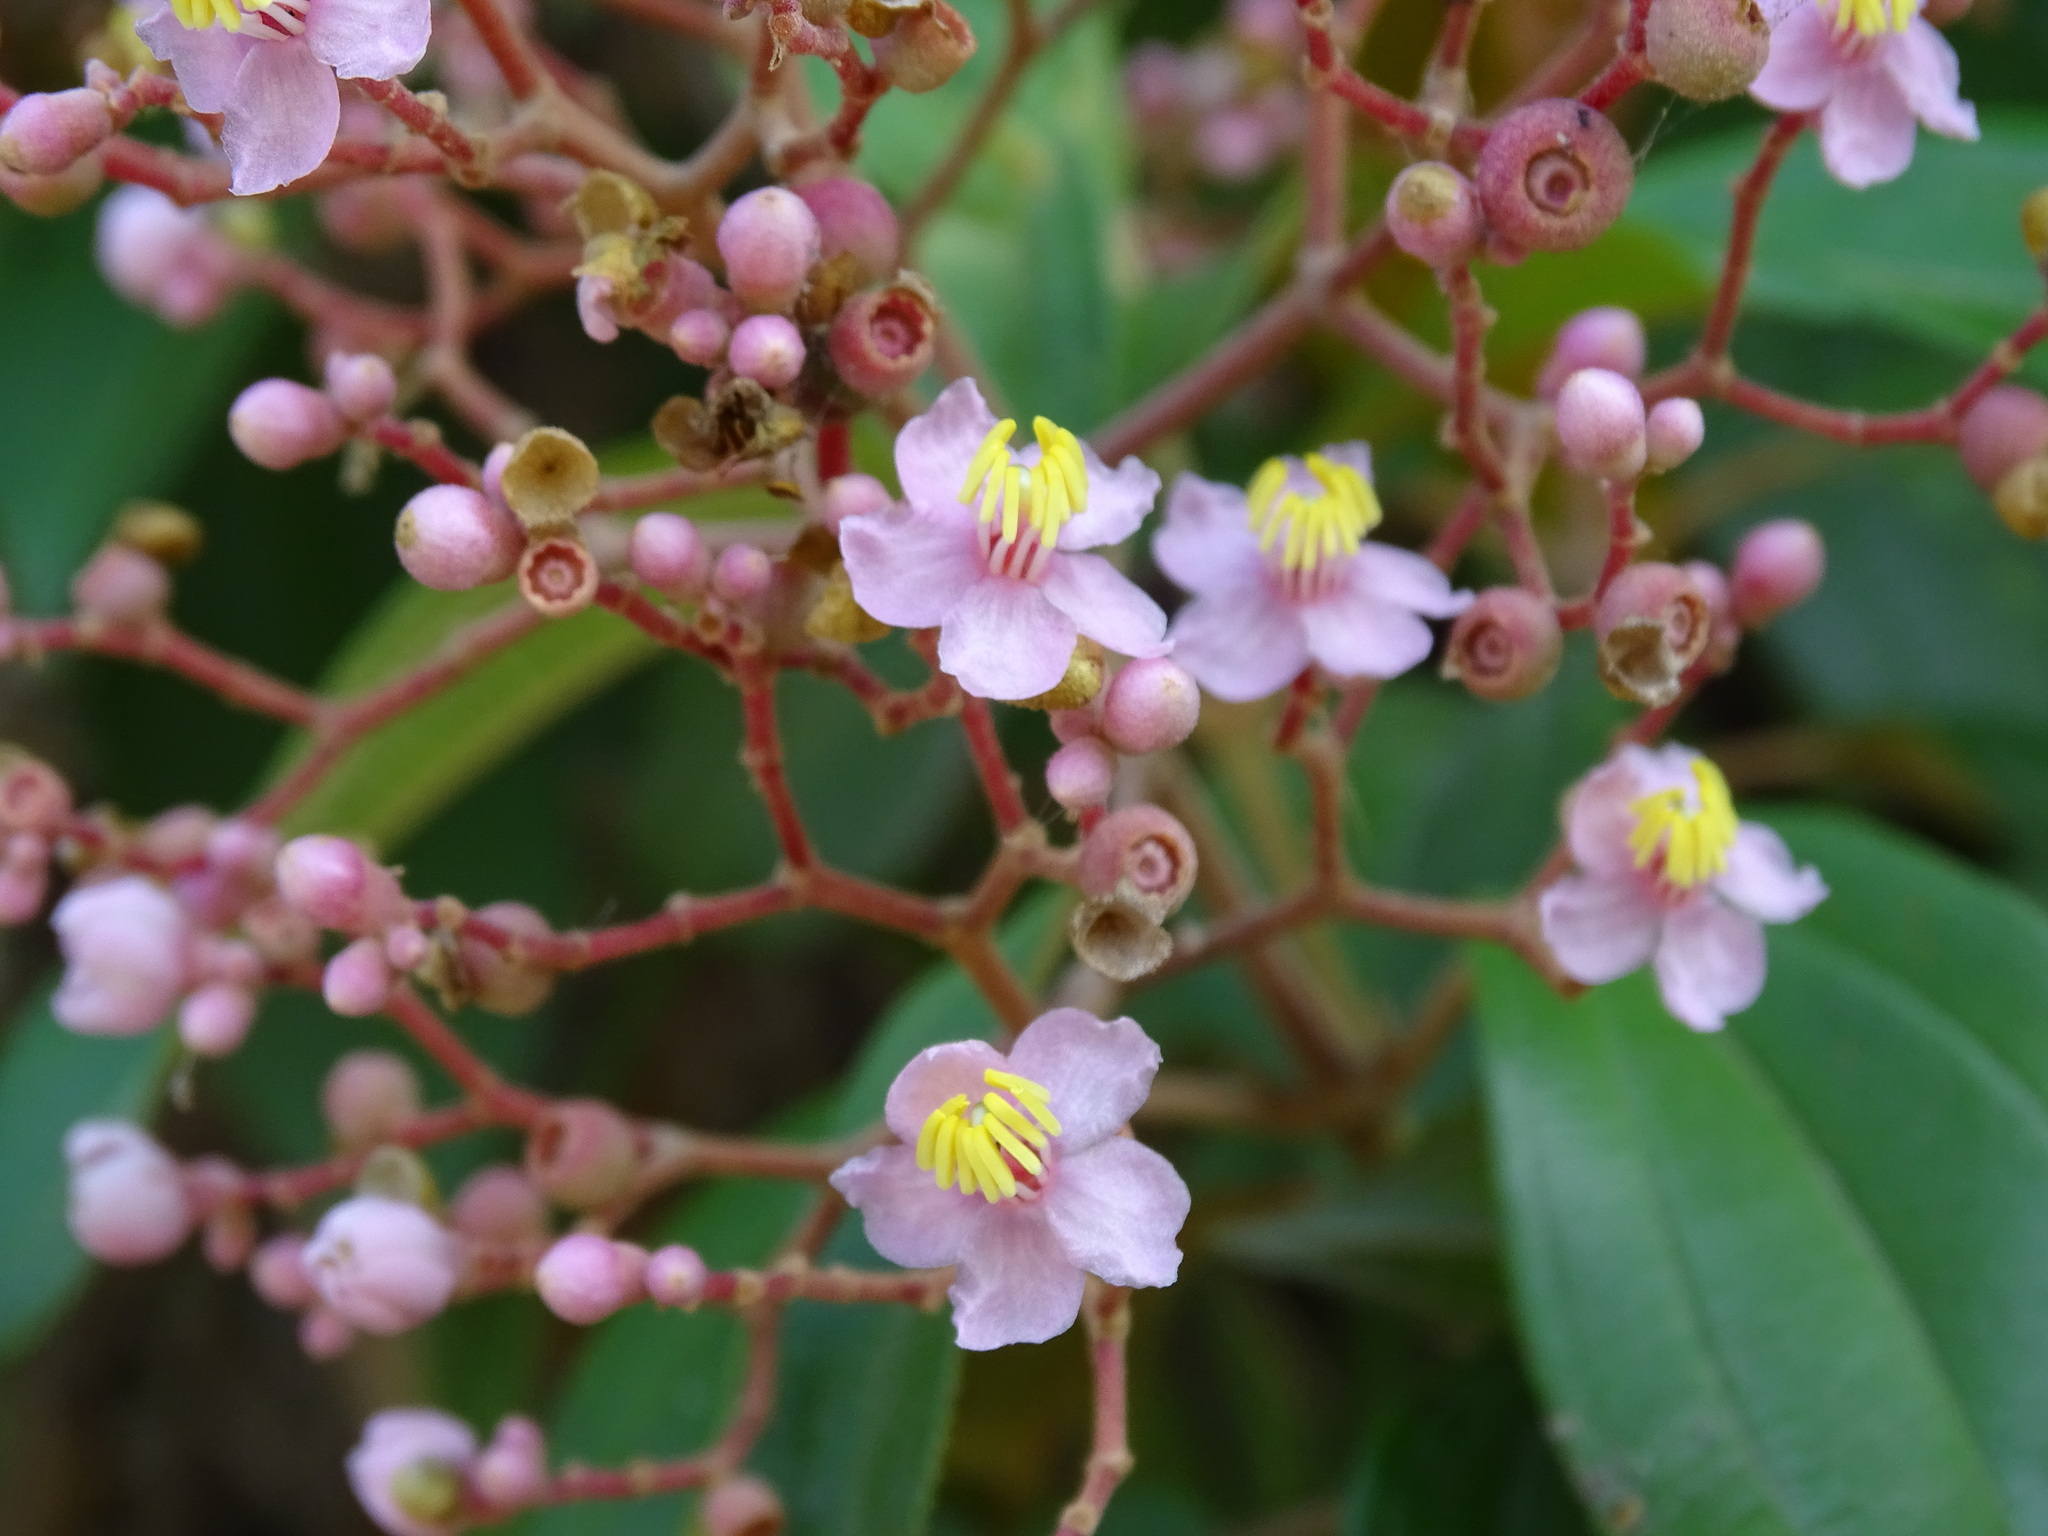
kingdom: Plantae
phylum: Tracheophyta
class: Magnoliopsida
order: Myrtales
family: Melastomataceae
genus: Miconia
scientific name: Miconia xalapensis
